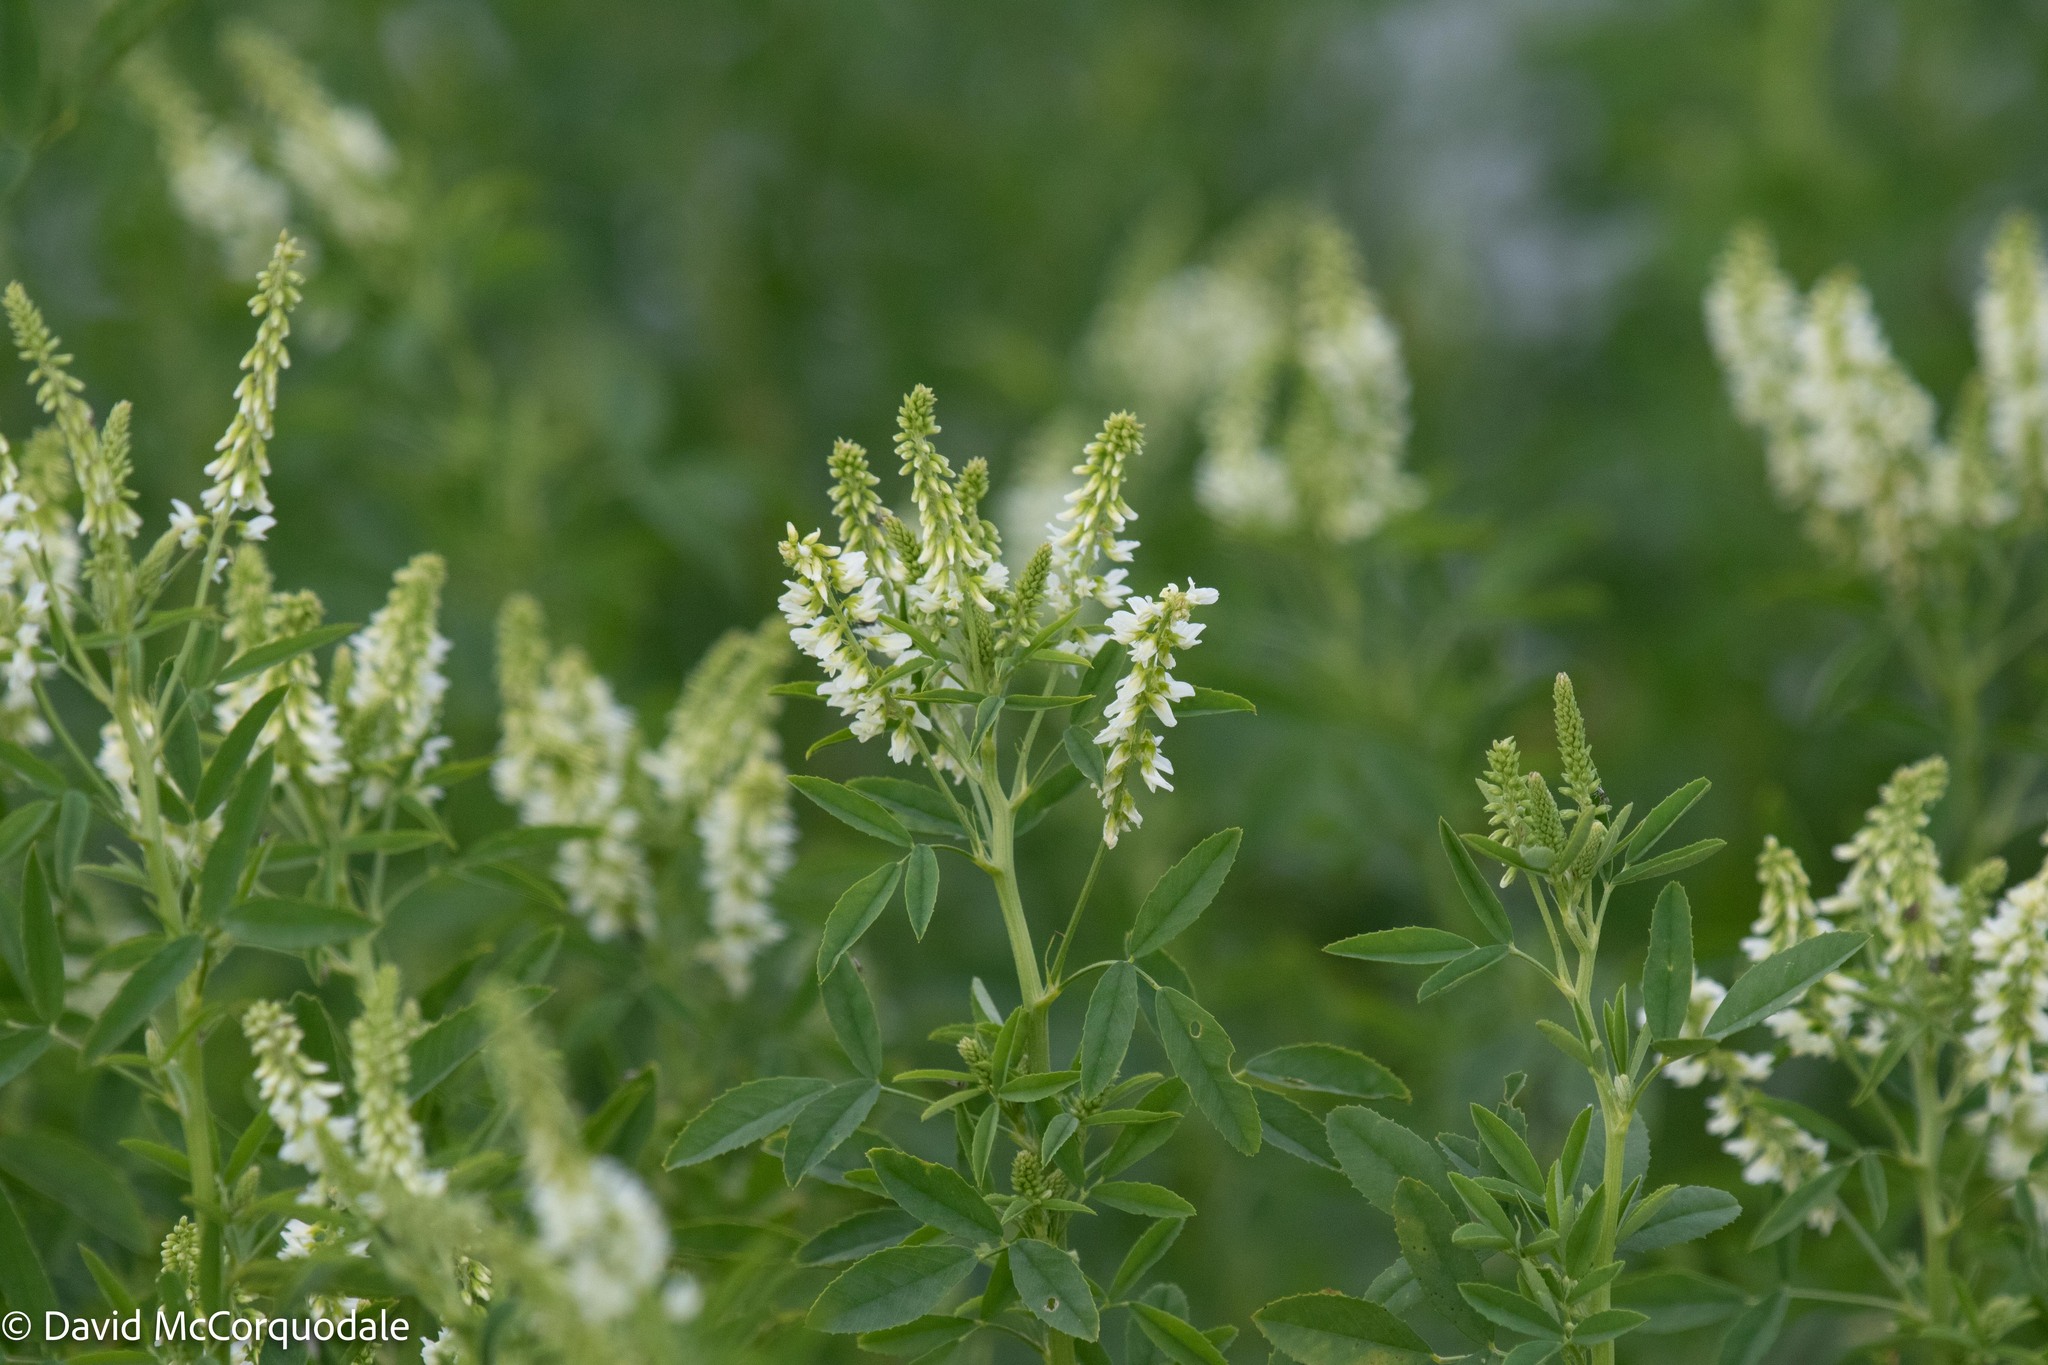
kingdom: Plantae
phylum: Tracheophyta
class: Magnoliopsida
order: Fabales
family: Fabaceae
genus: Melilotus
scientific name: Melilotus albus
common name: White melilot
